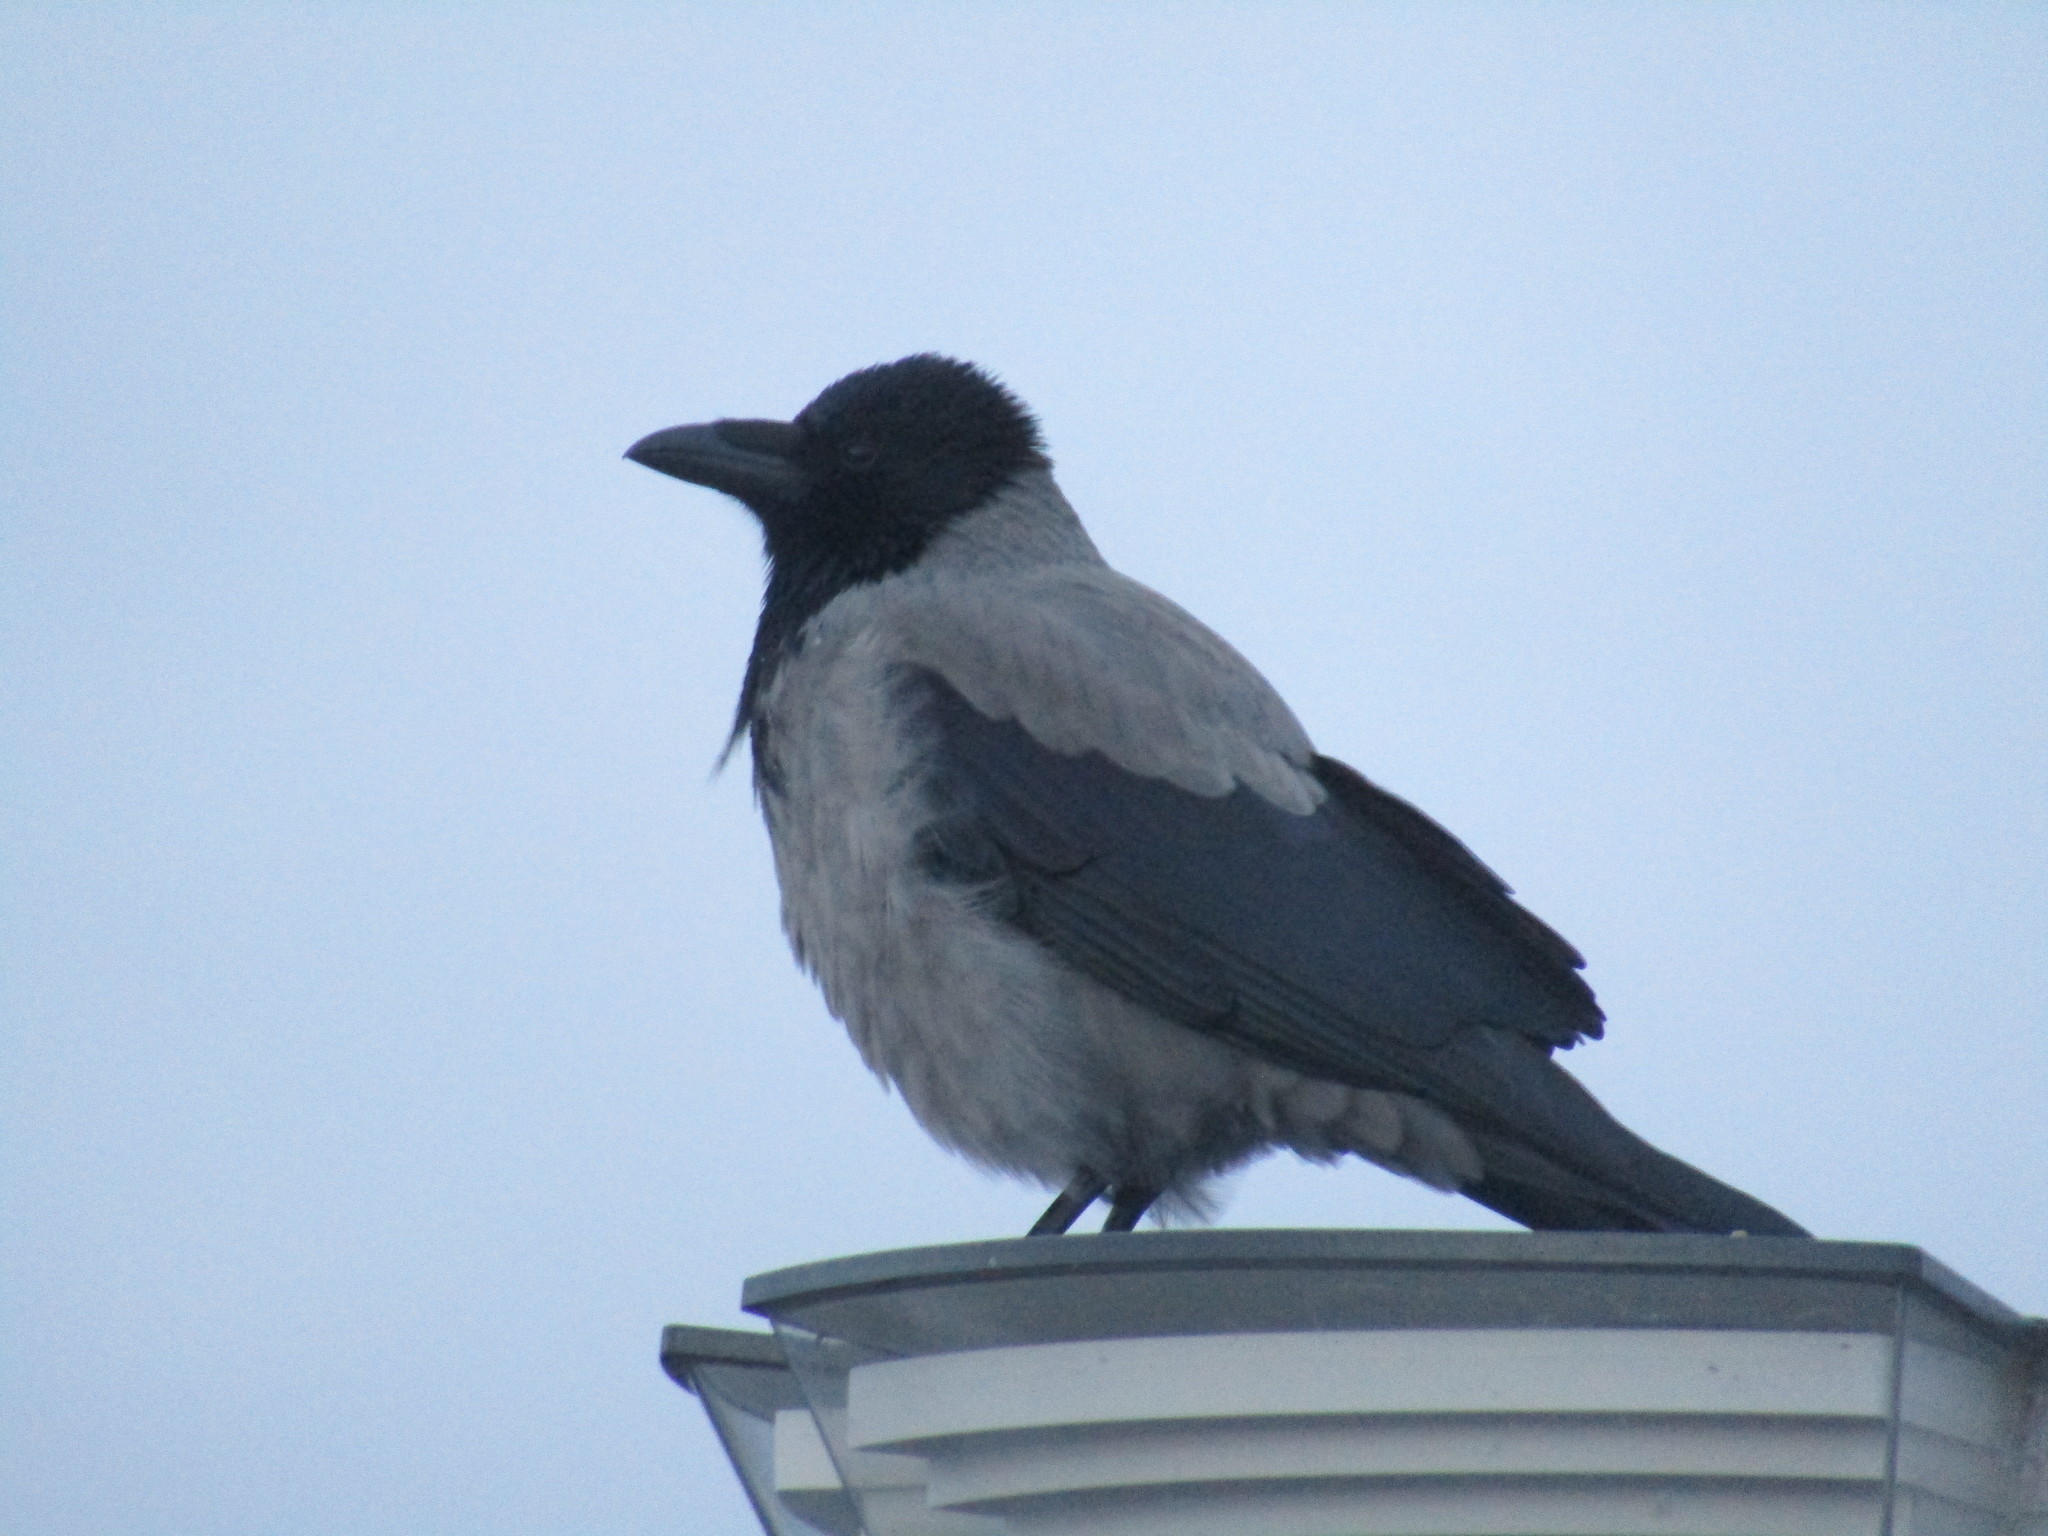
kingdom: Animalia
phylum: Chordata
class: Aves
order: Passeriformes
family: Corvidae
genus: Corvus
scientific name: Corvus cornix
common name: Hooded crow
